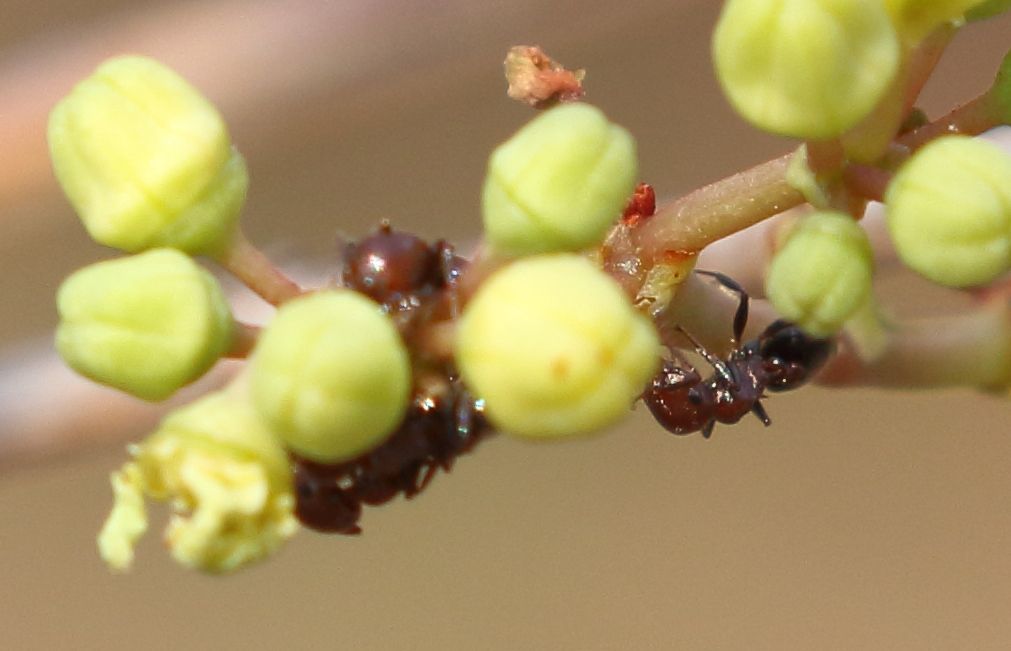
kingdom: Animalia
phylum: Arthropoda
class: Insecta
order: Hymenoptera
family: Formicidae
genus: Crematogaster
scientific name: Crematogaster castanea
